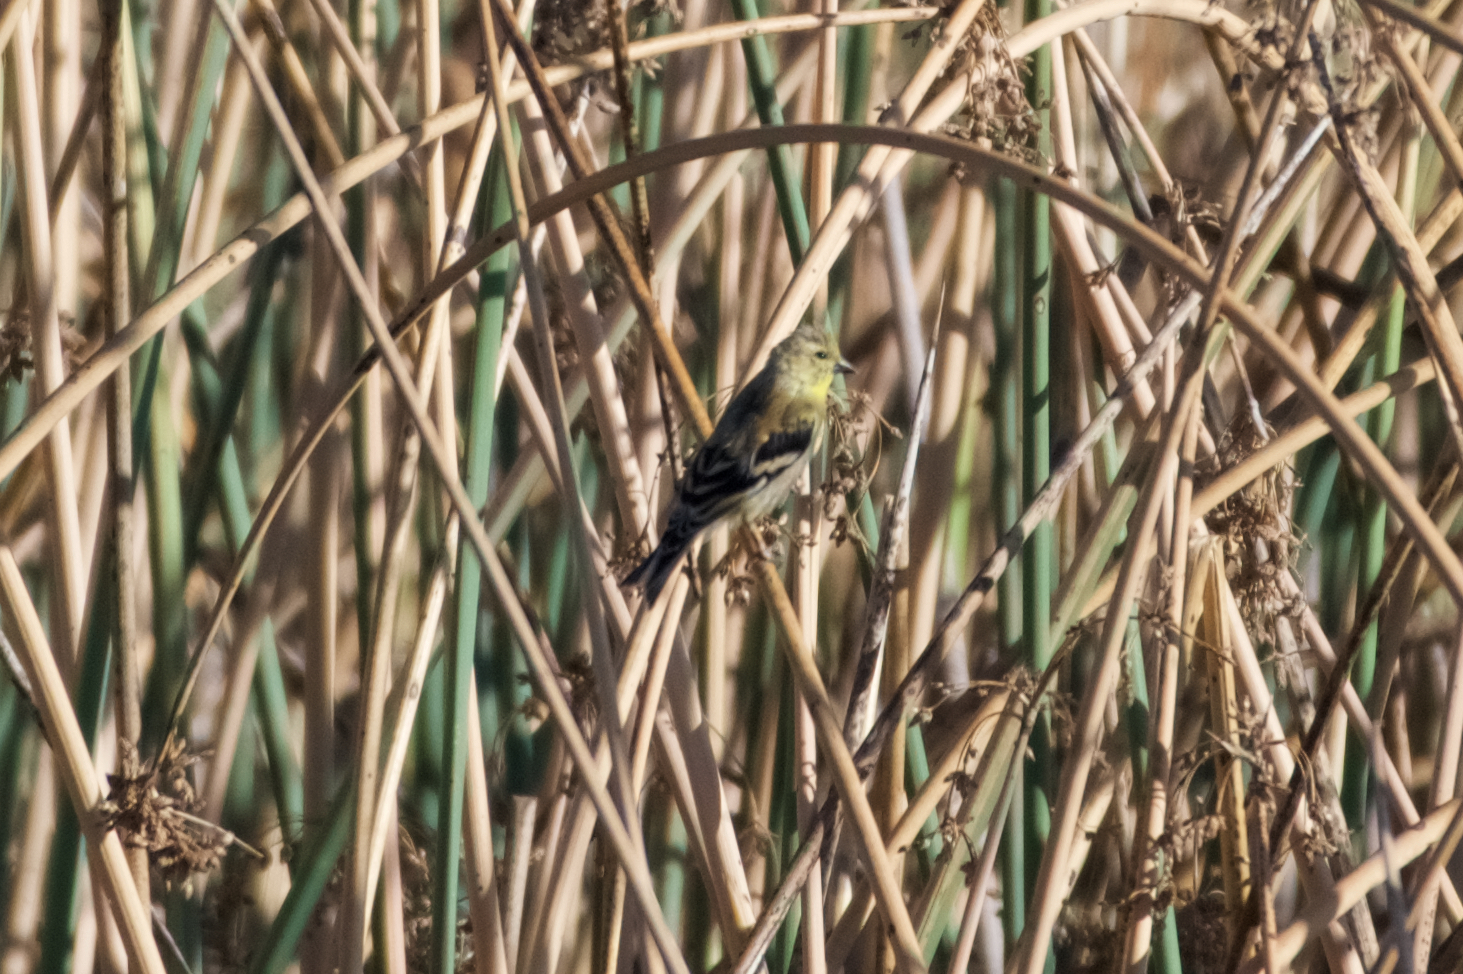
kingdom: Animalia
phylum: Chordata
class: Aves
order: Passeriformes
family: Fringillidae
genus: Spinus
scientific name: Spinus tristis
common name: American goldfinch
